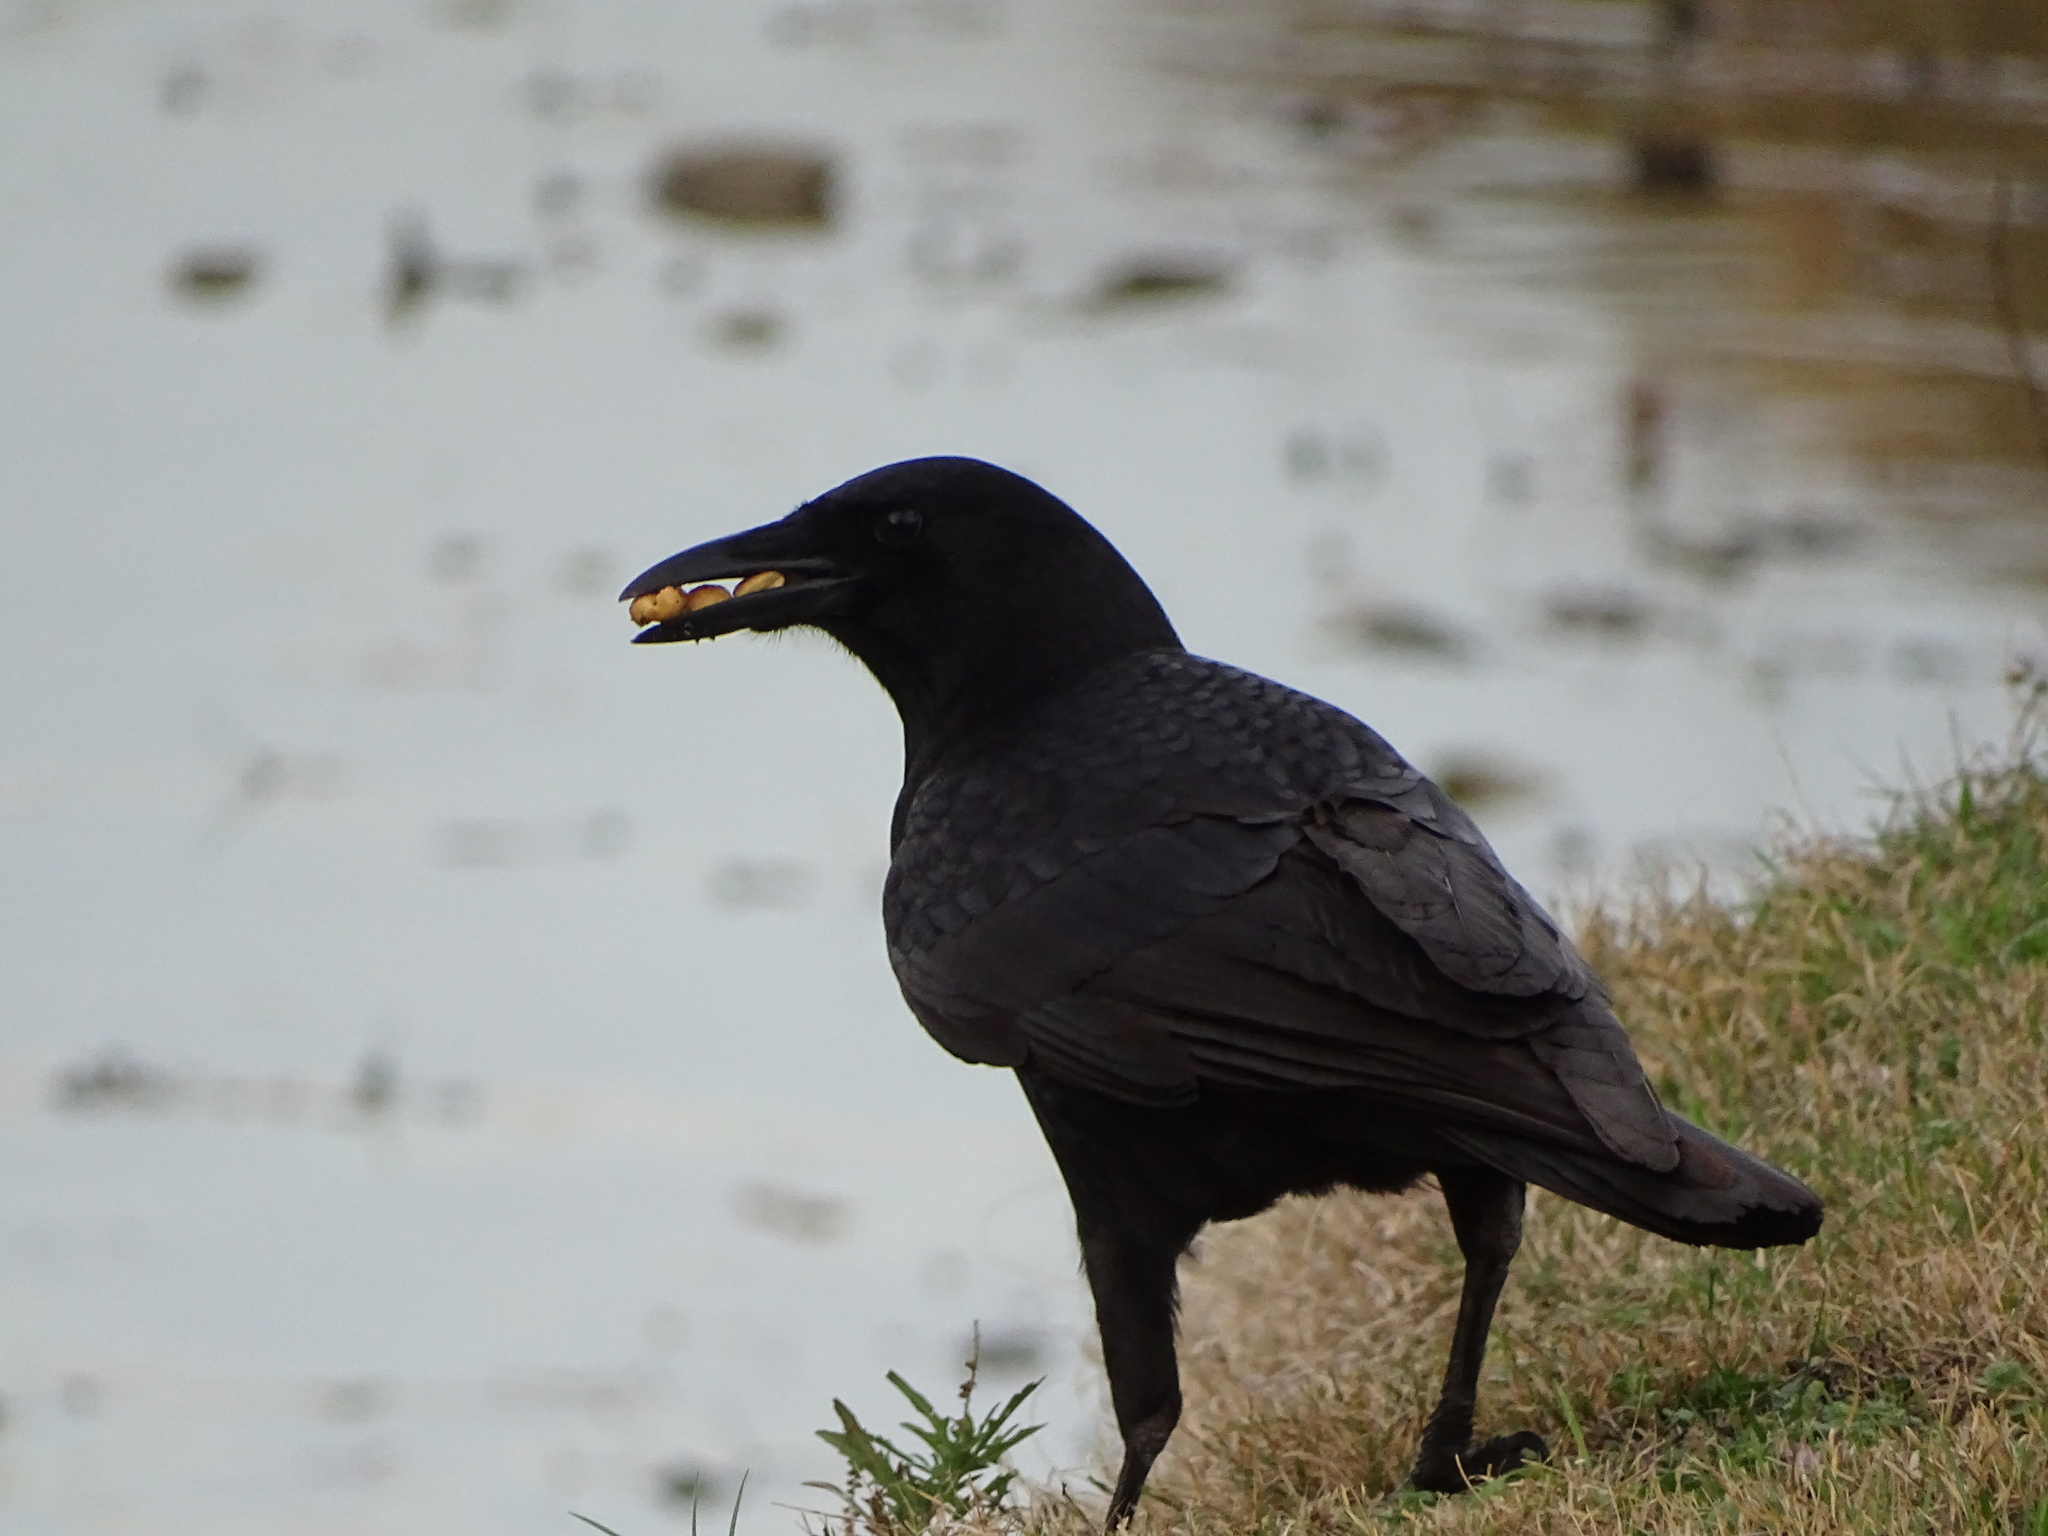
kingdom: Animalia
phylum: Chordata
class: Aves
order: Passeriformes
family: Corvidae
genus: Corvus
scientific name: Corvus brachyrhynchos
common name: American crow
